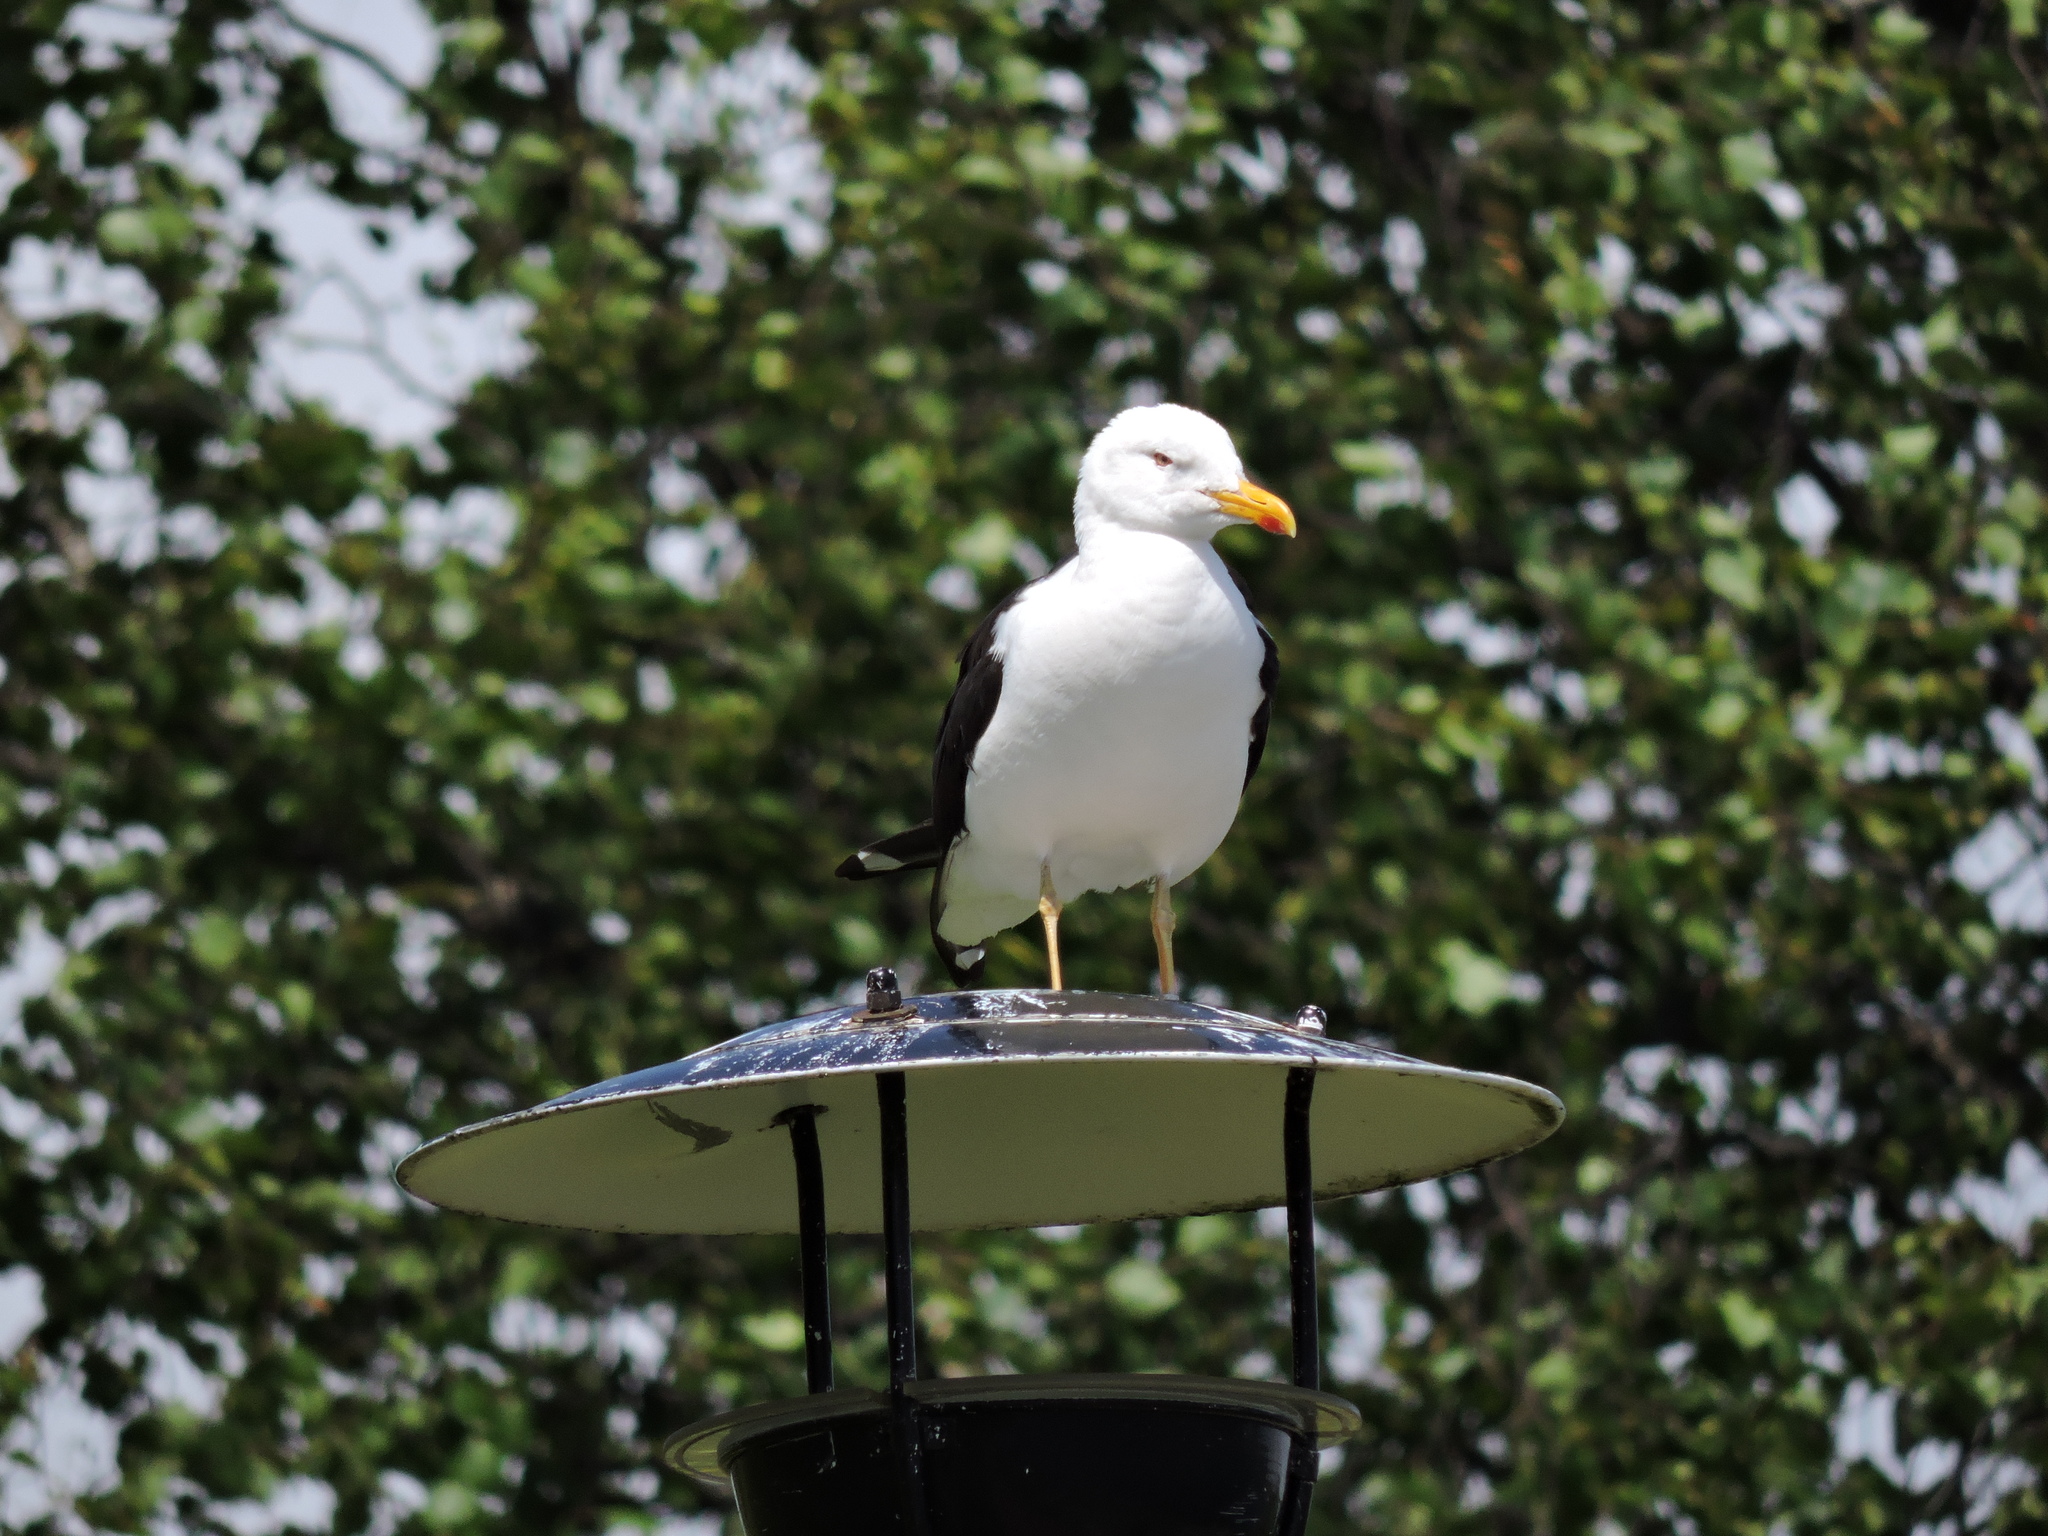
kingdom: Animalia
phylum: Chordata
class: Aves
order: Charadriiformes
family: Laridae
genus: Larus
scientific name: Larus fuscus
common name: Lesser black-backed gull
